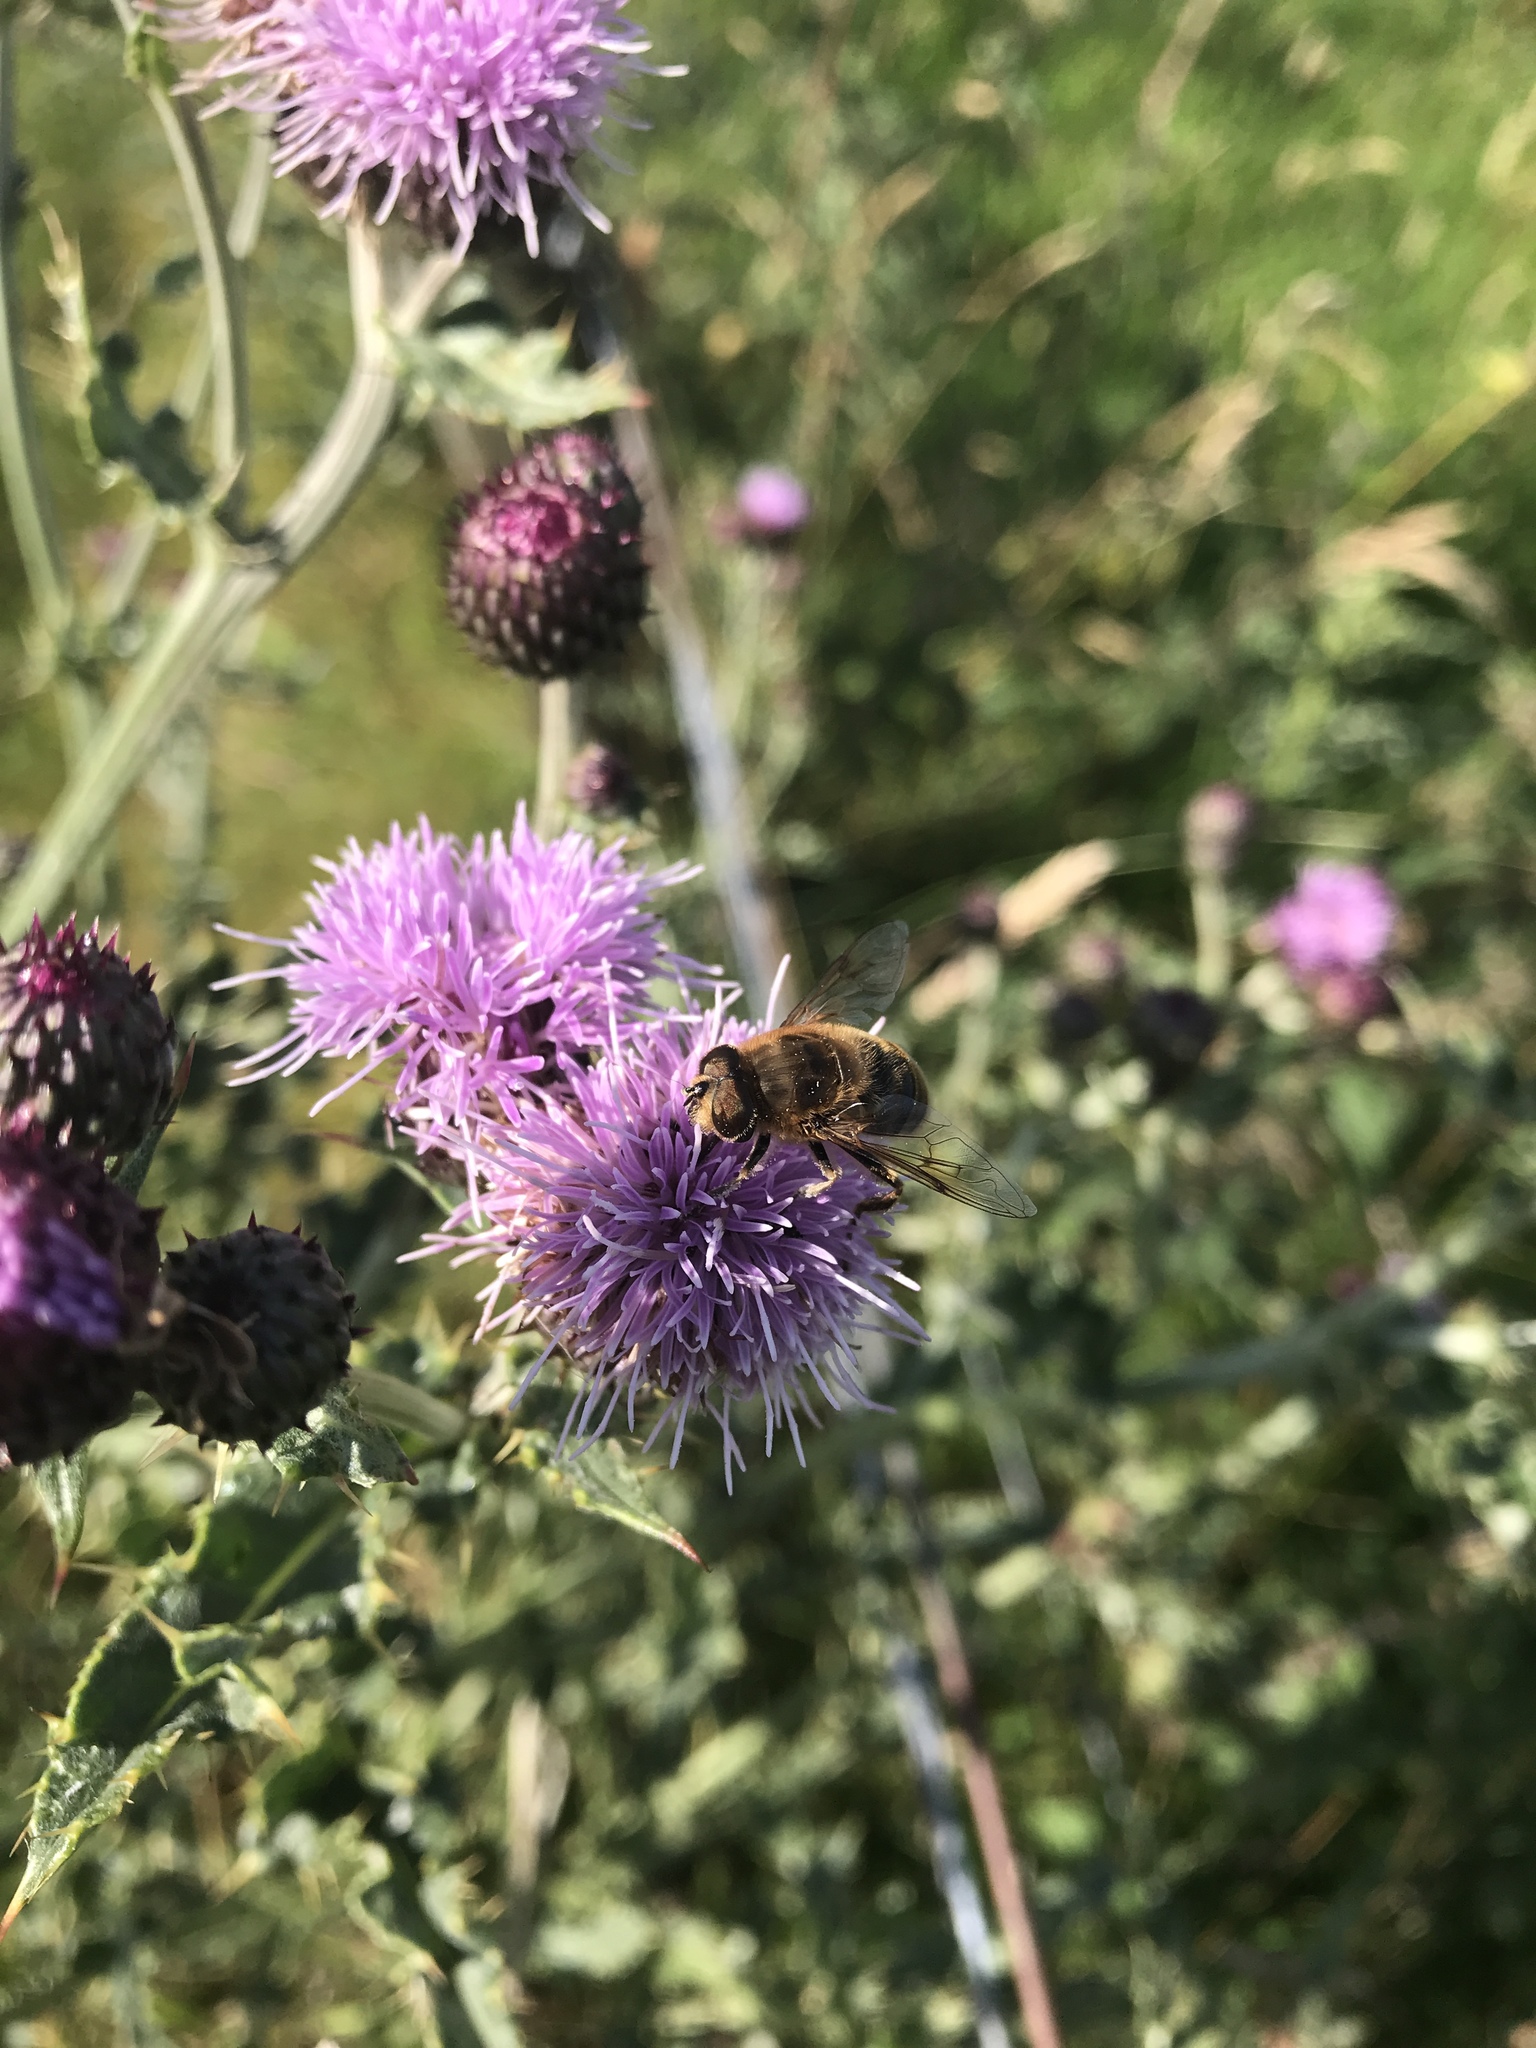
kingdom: Animalia
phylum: Arthropoda
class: Insecta
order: Diptera
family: Syrphidae
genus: Eristalis
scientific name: Eristalis tenax
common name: Drone fly
